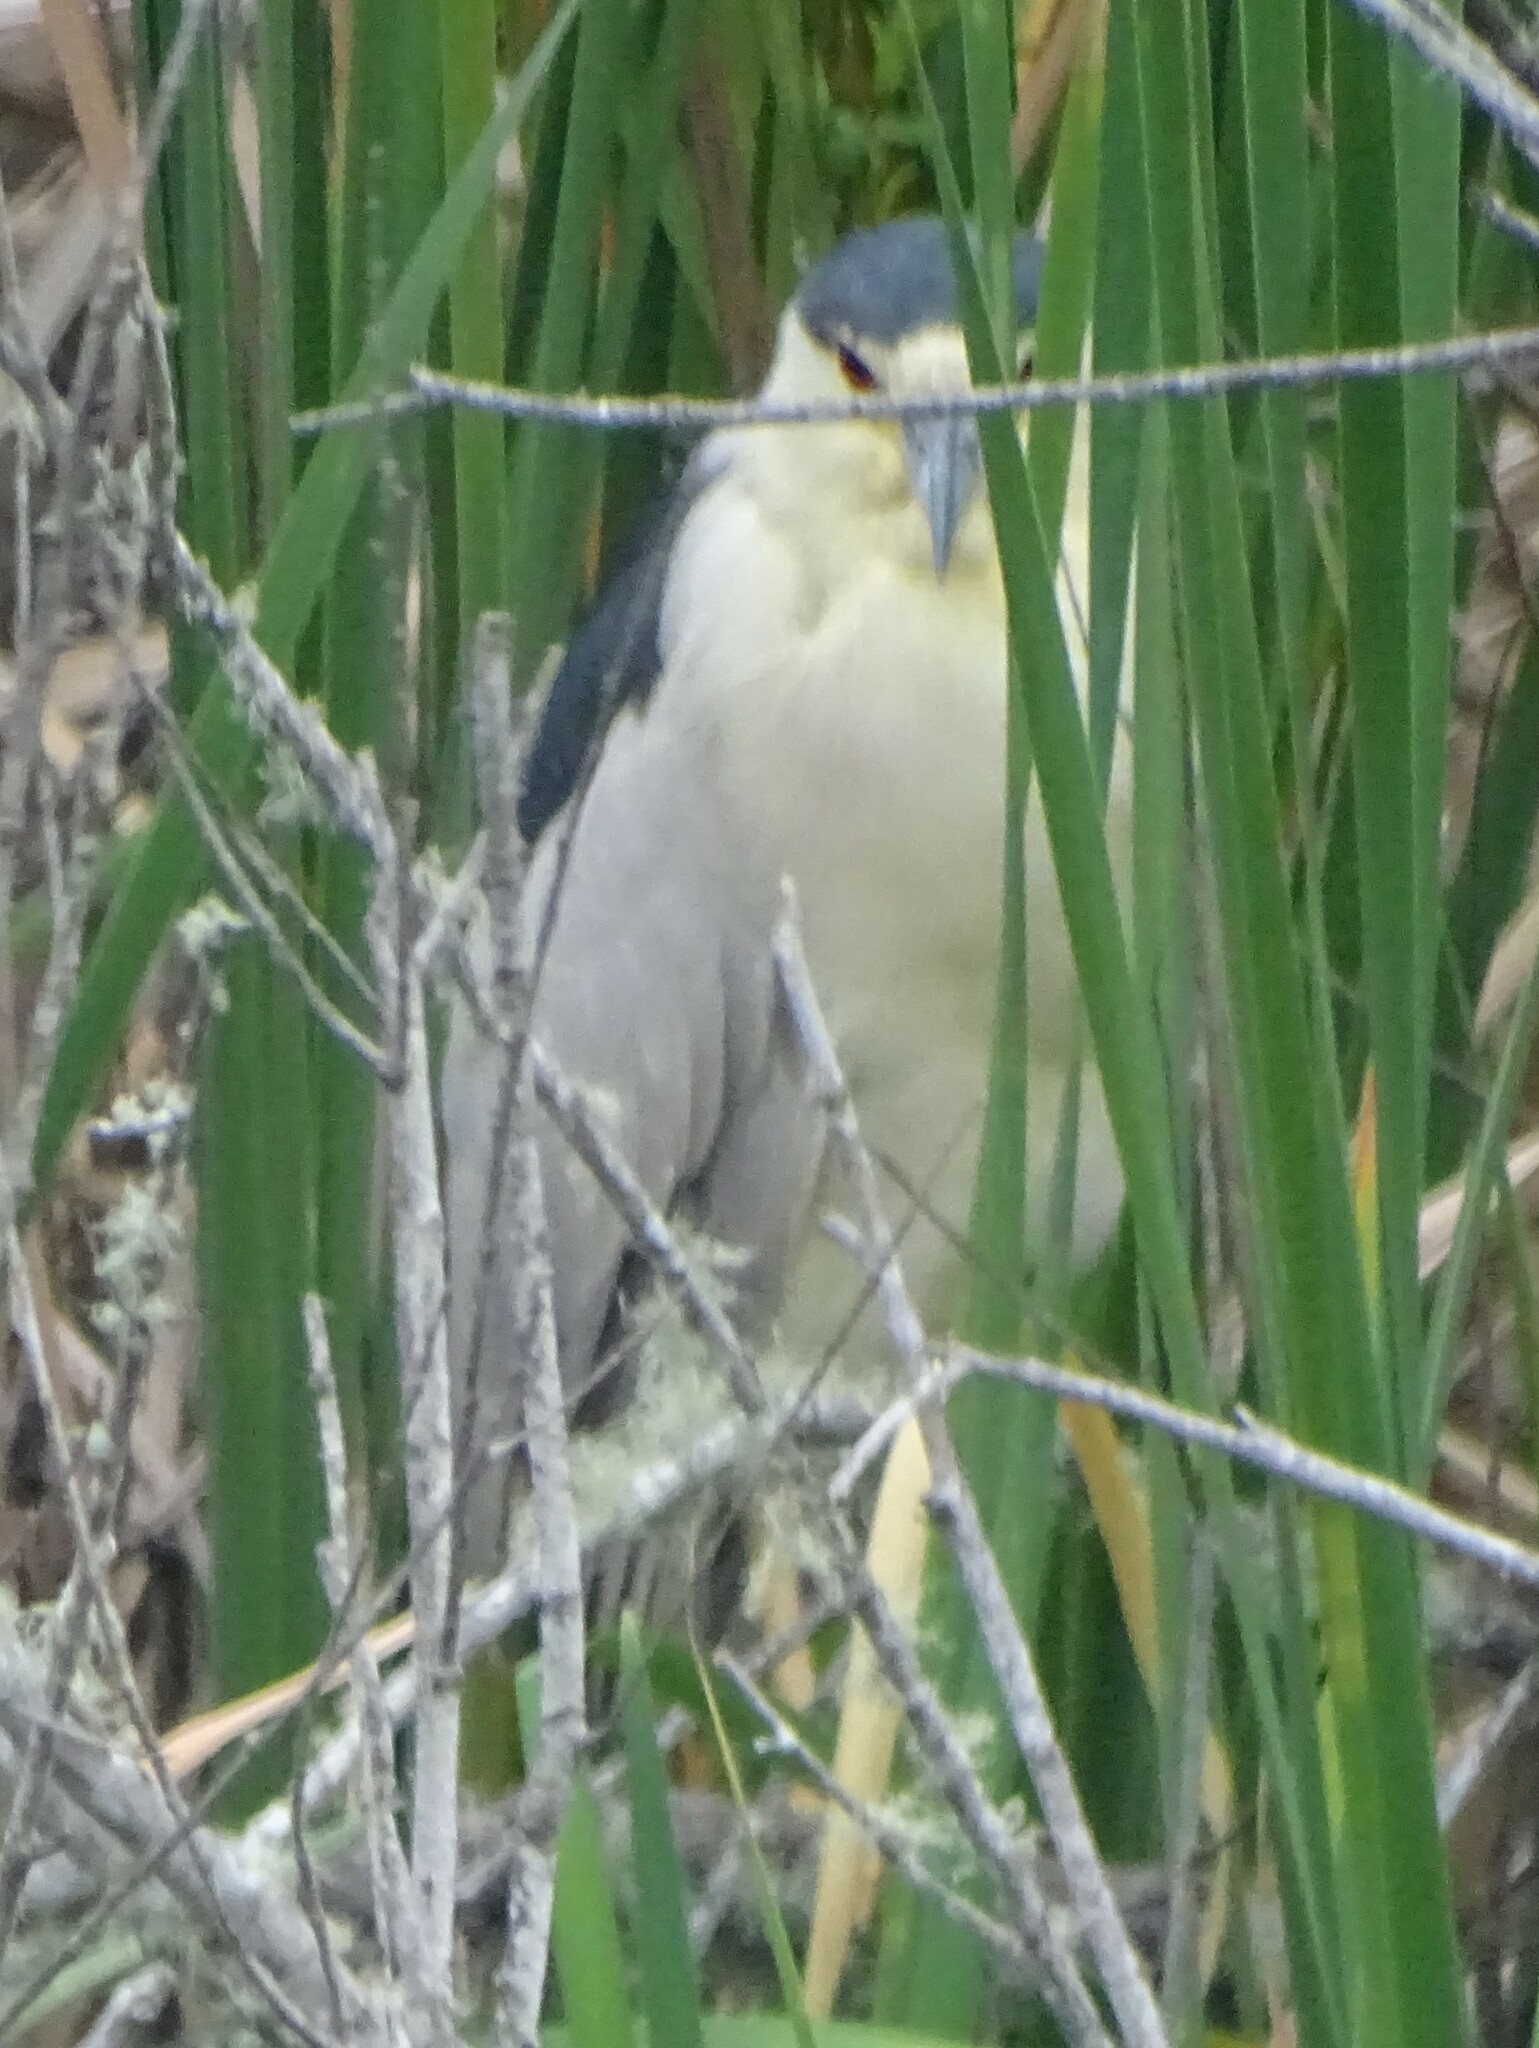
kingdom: Animalia
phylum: Chordata
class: Aves
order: Pelecaniformes
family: Ardeidae
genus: Nycticorax
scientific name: Nycticorax nycticorax
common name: Black-crowned night heron
